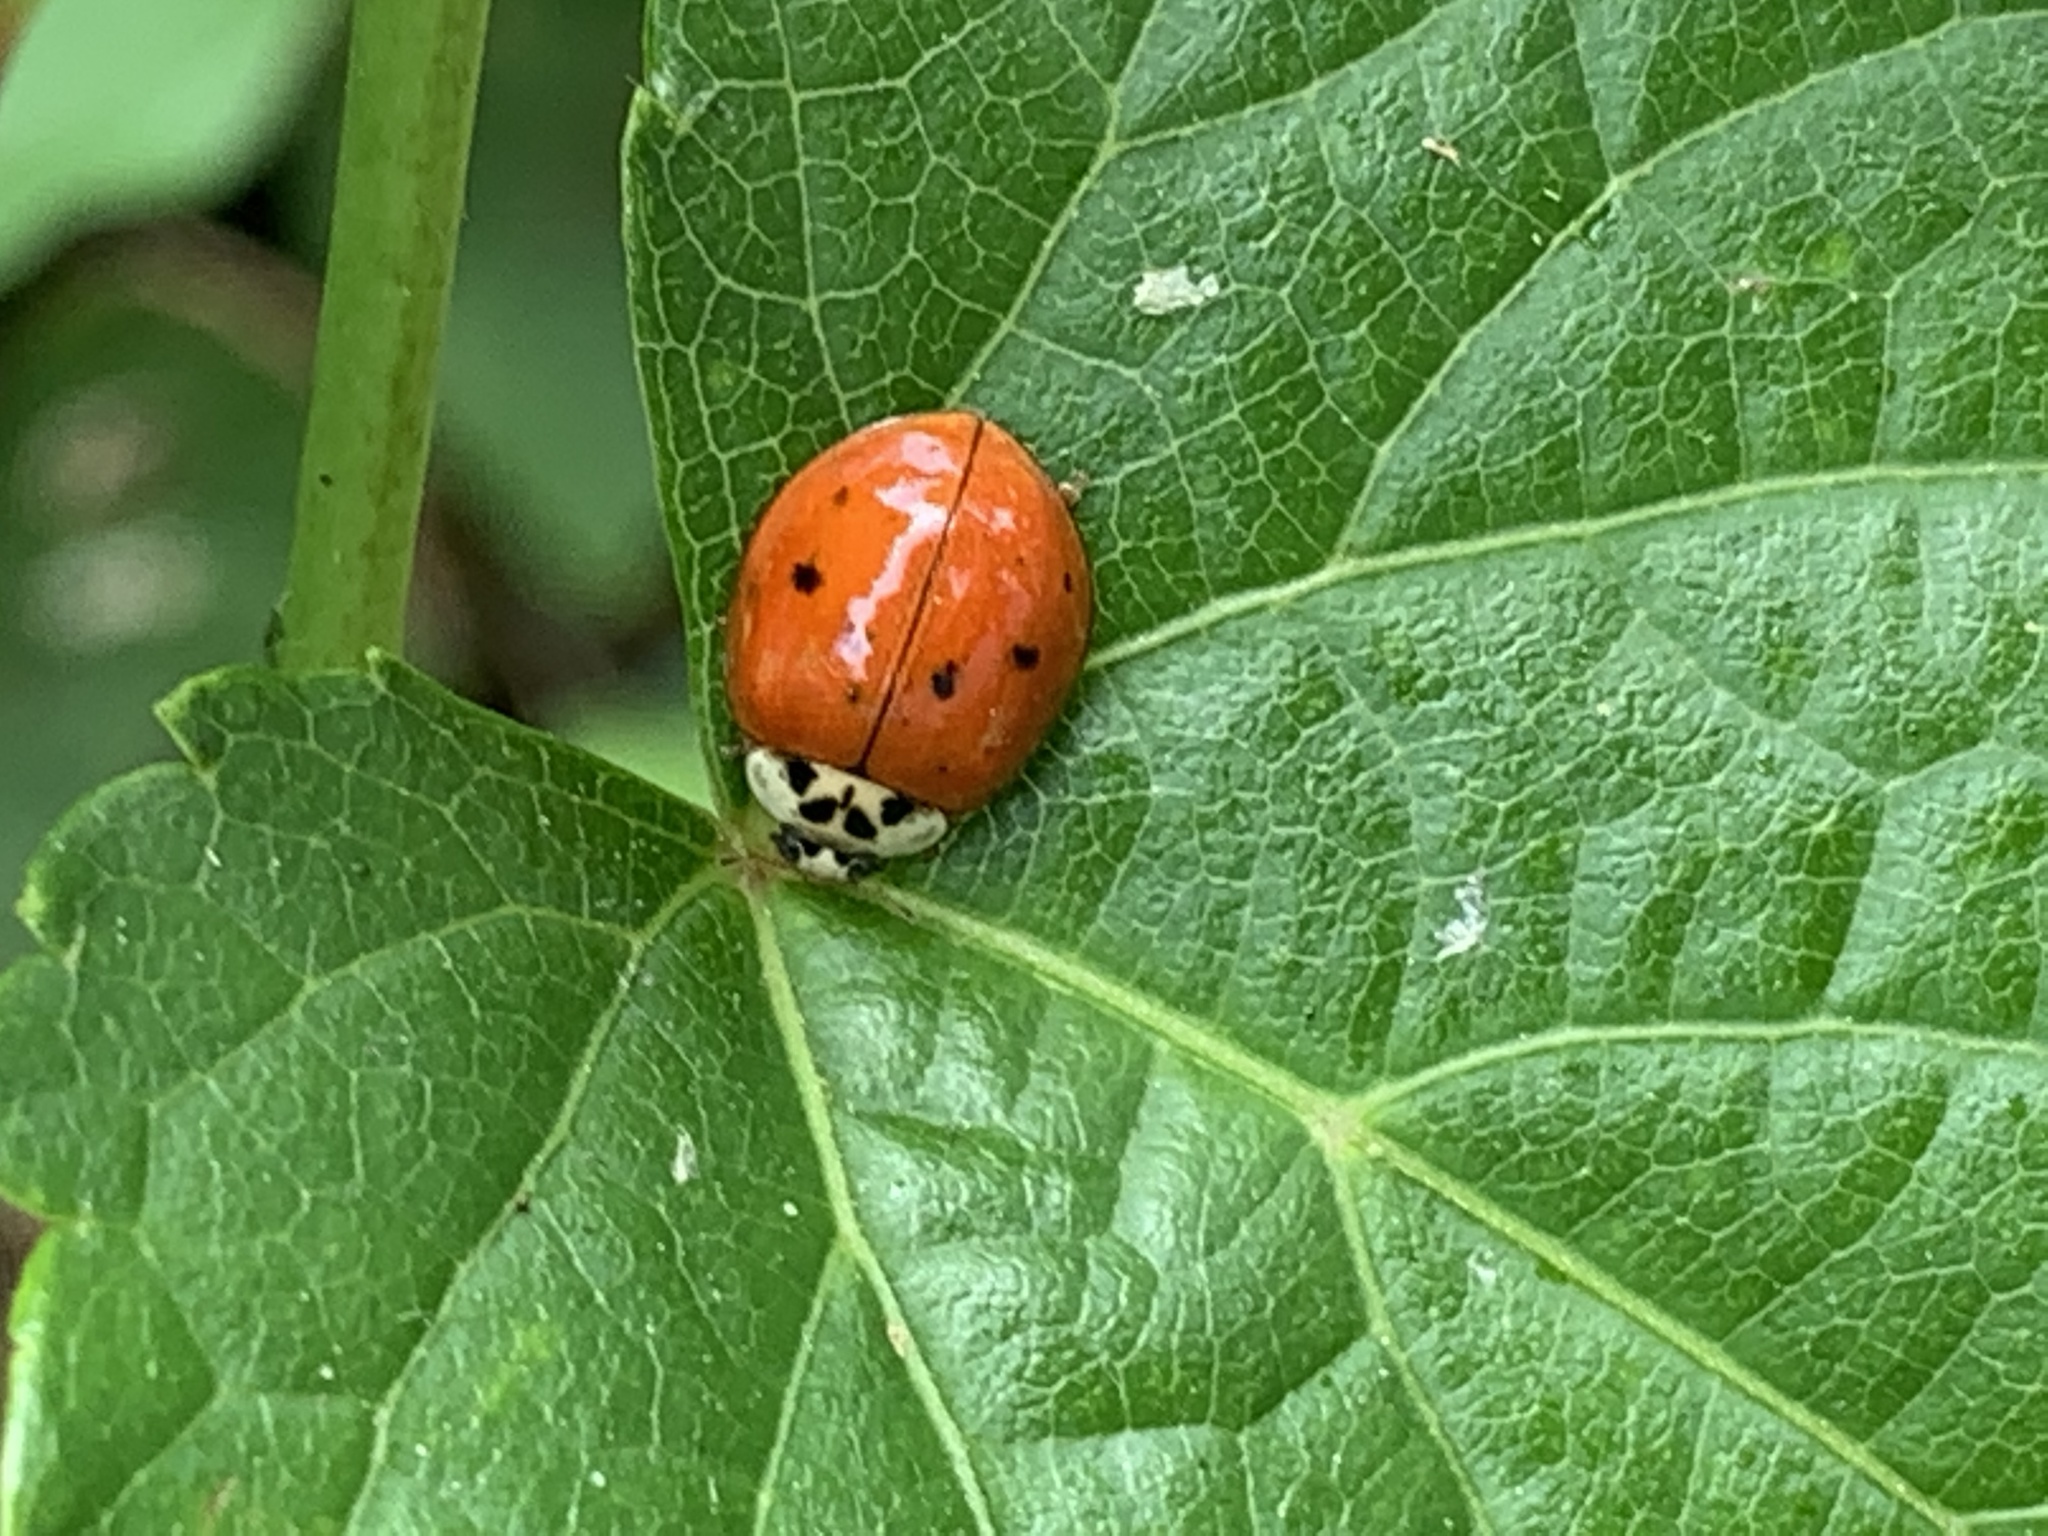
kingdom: Animalia
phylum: Arthropoda
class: Insecta
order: Coleoptera
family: Coccinellidae
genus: Harmonia
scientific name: Harmonia axyridis
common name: Harlequin ladybird
